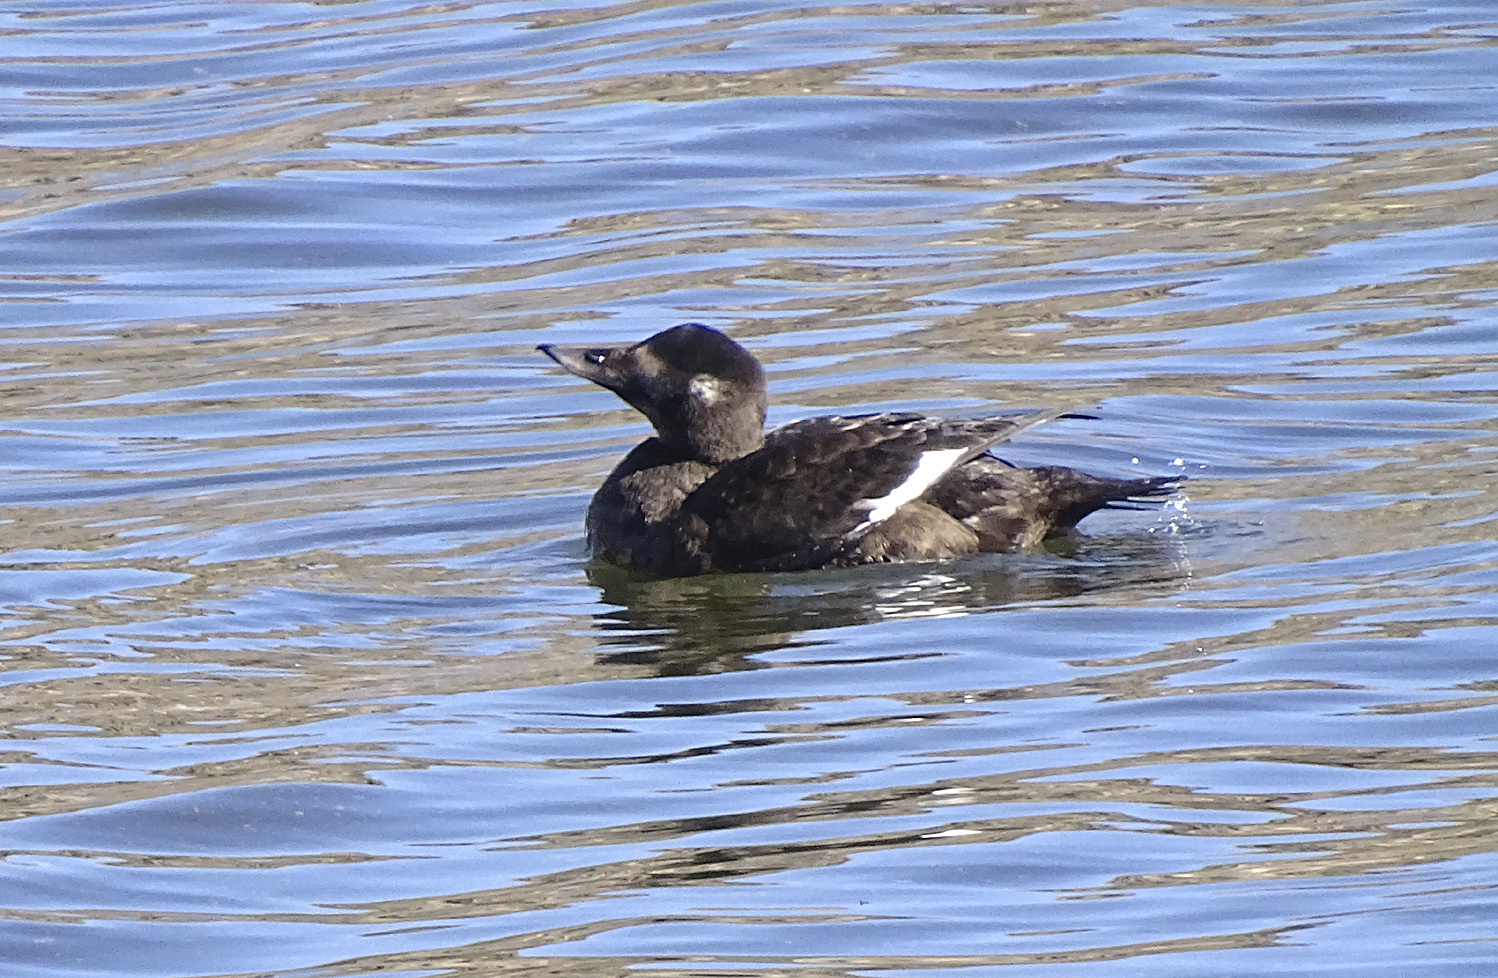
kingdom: Animalia
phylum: Chordata
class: Aves
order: Anseriformes
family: Anatidae
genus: Melanitta
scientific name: Melanitta deglandi
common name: White-winged scoter
